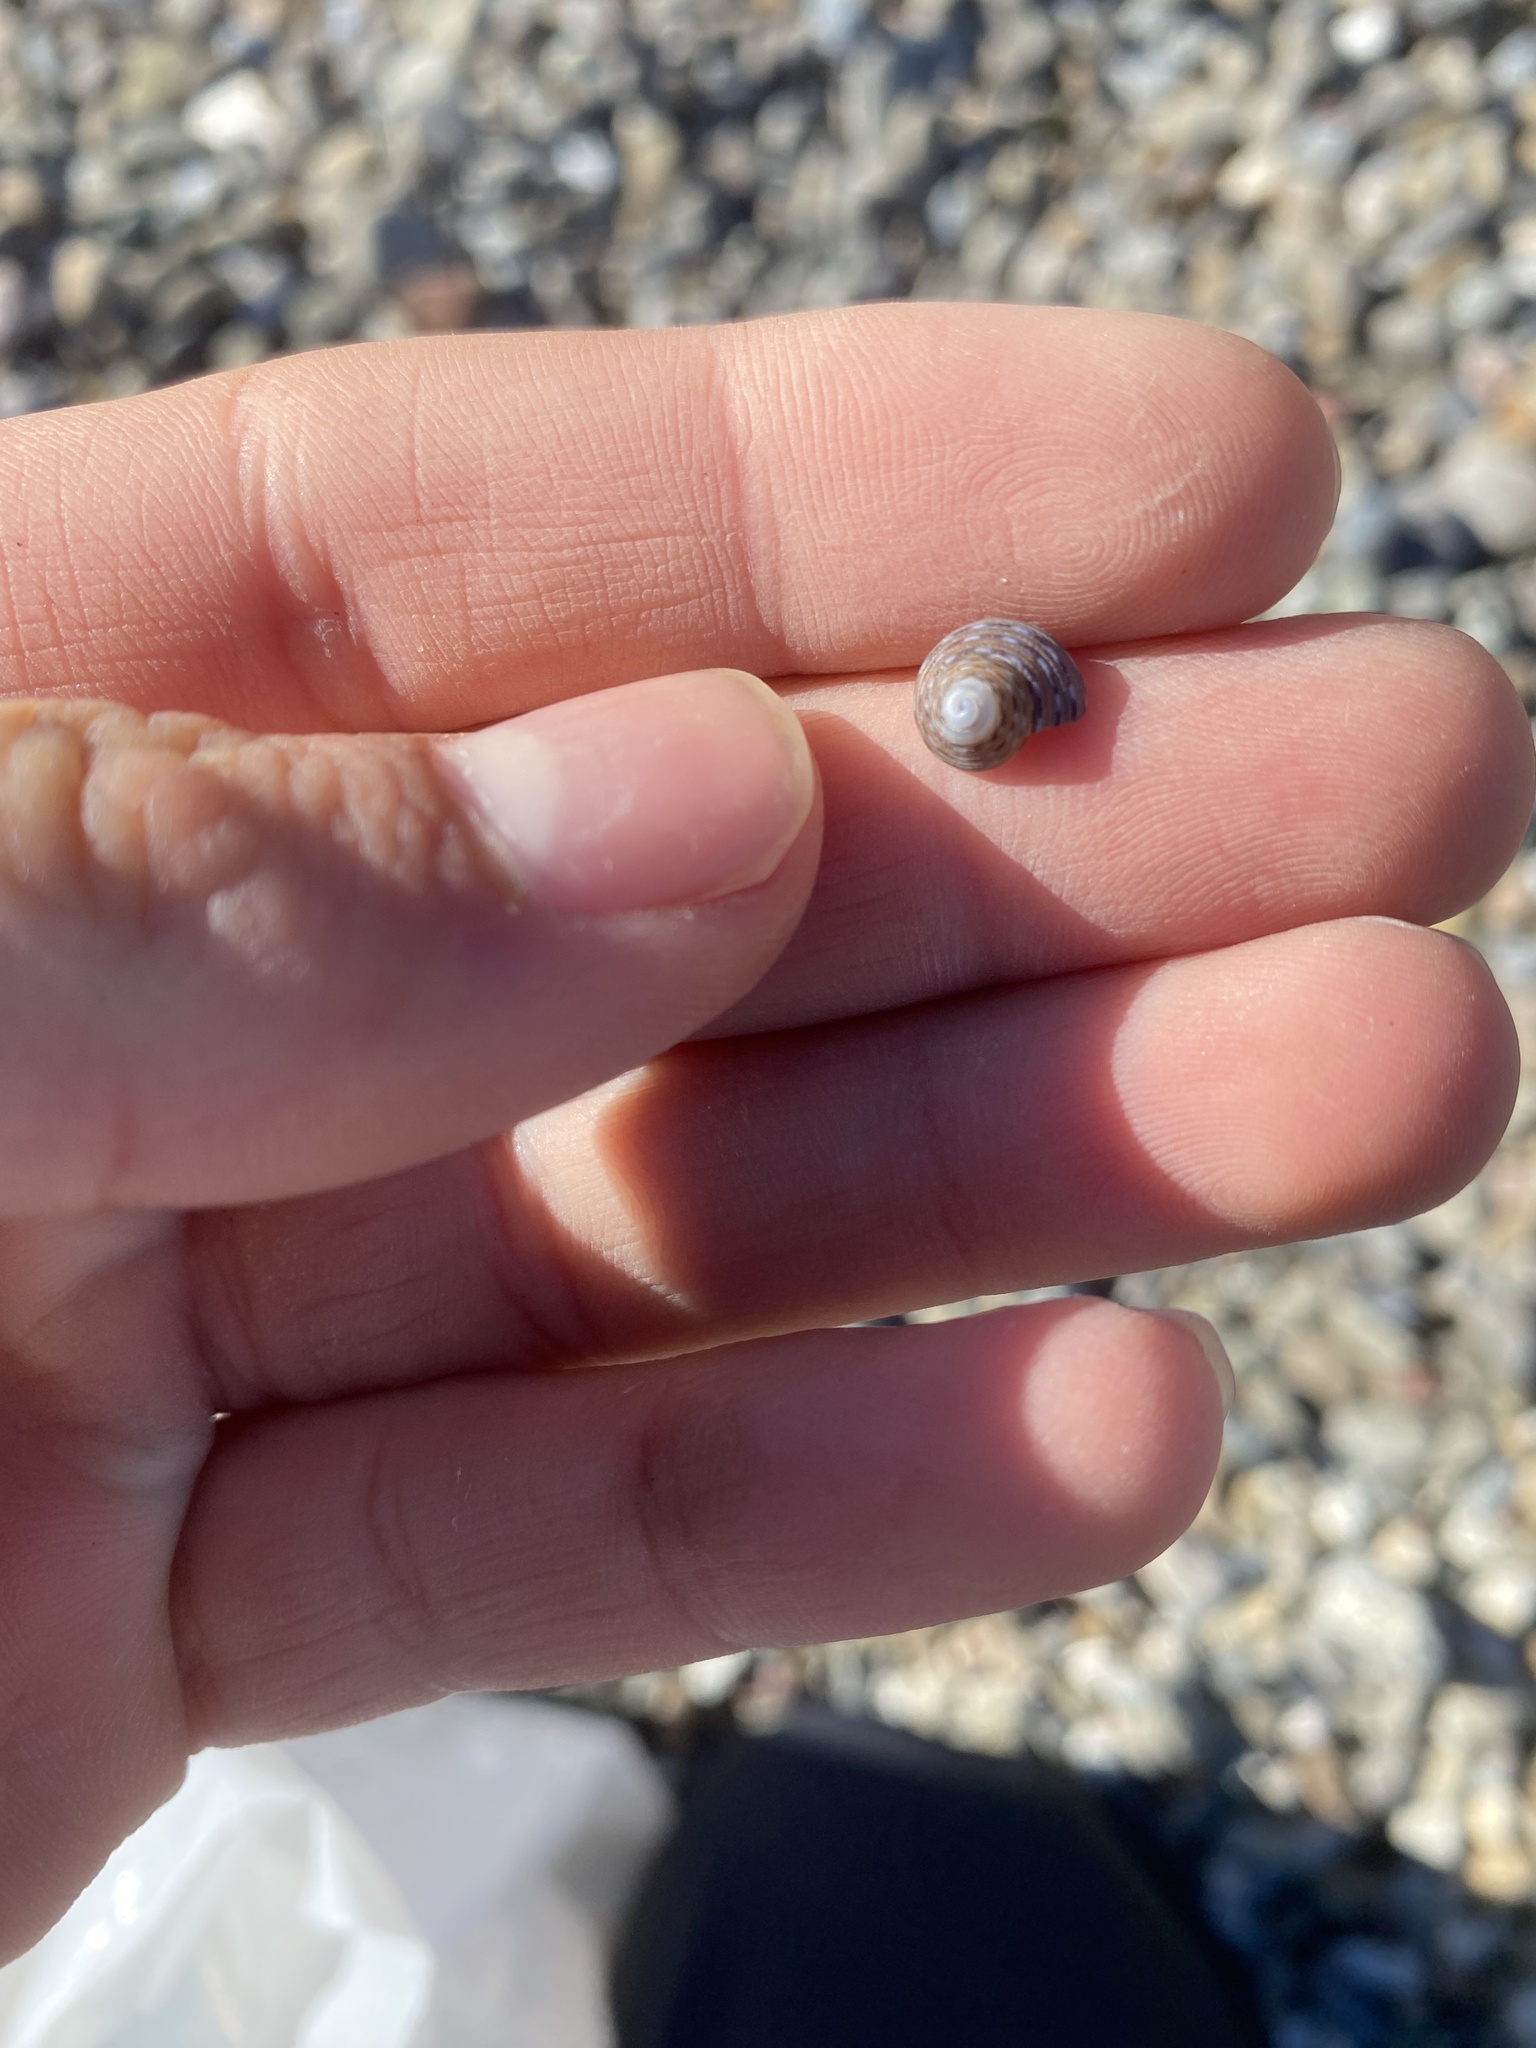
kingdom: Animalia
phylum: Mollusca
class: Gastropoda
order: Trochida
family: Calliostomatidae
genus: Calliostoma
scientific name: Calliostoma tricolor
